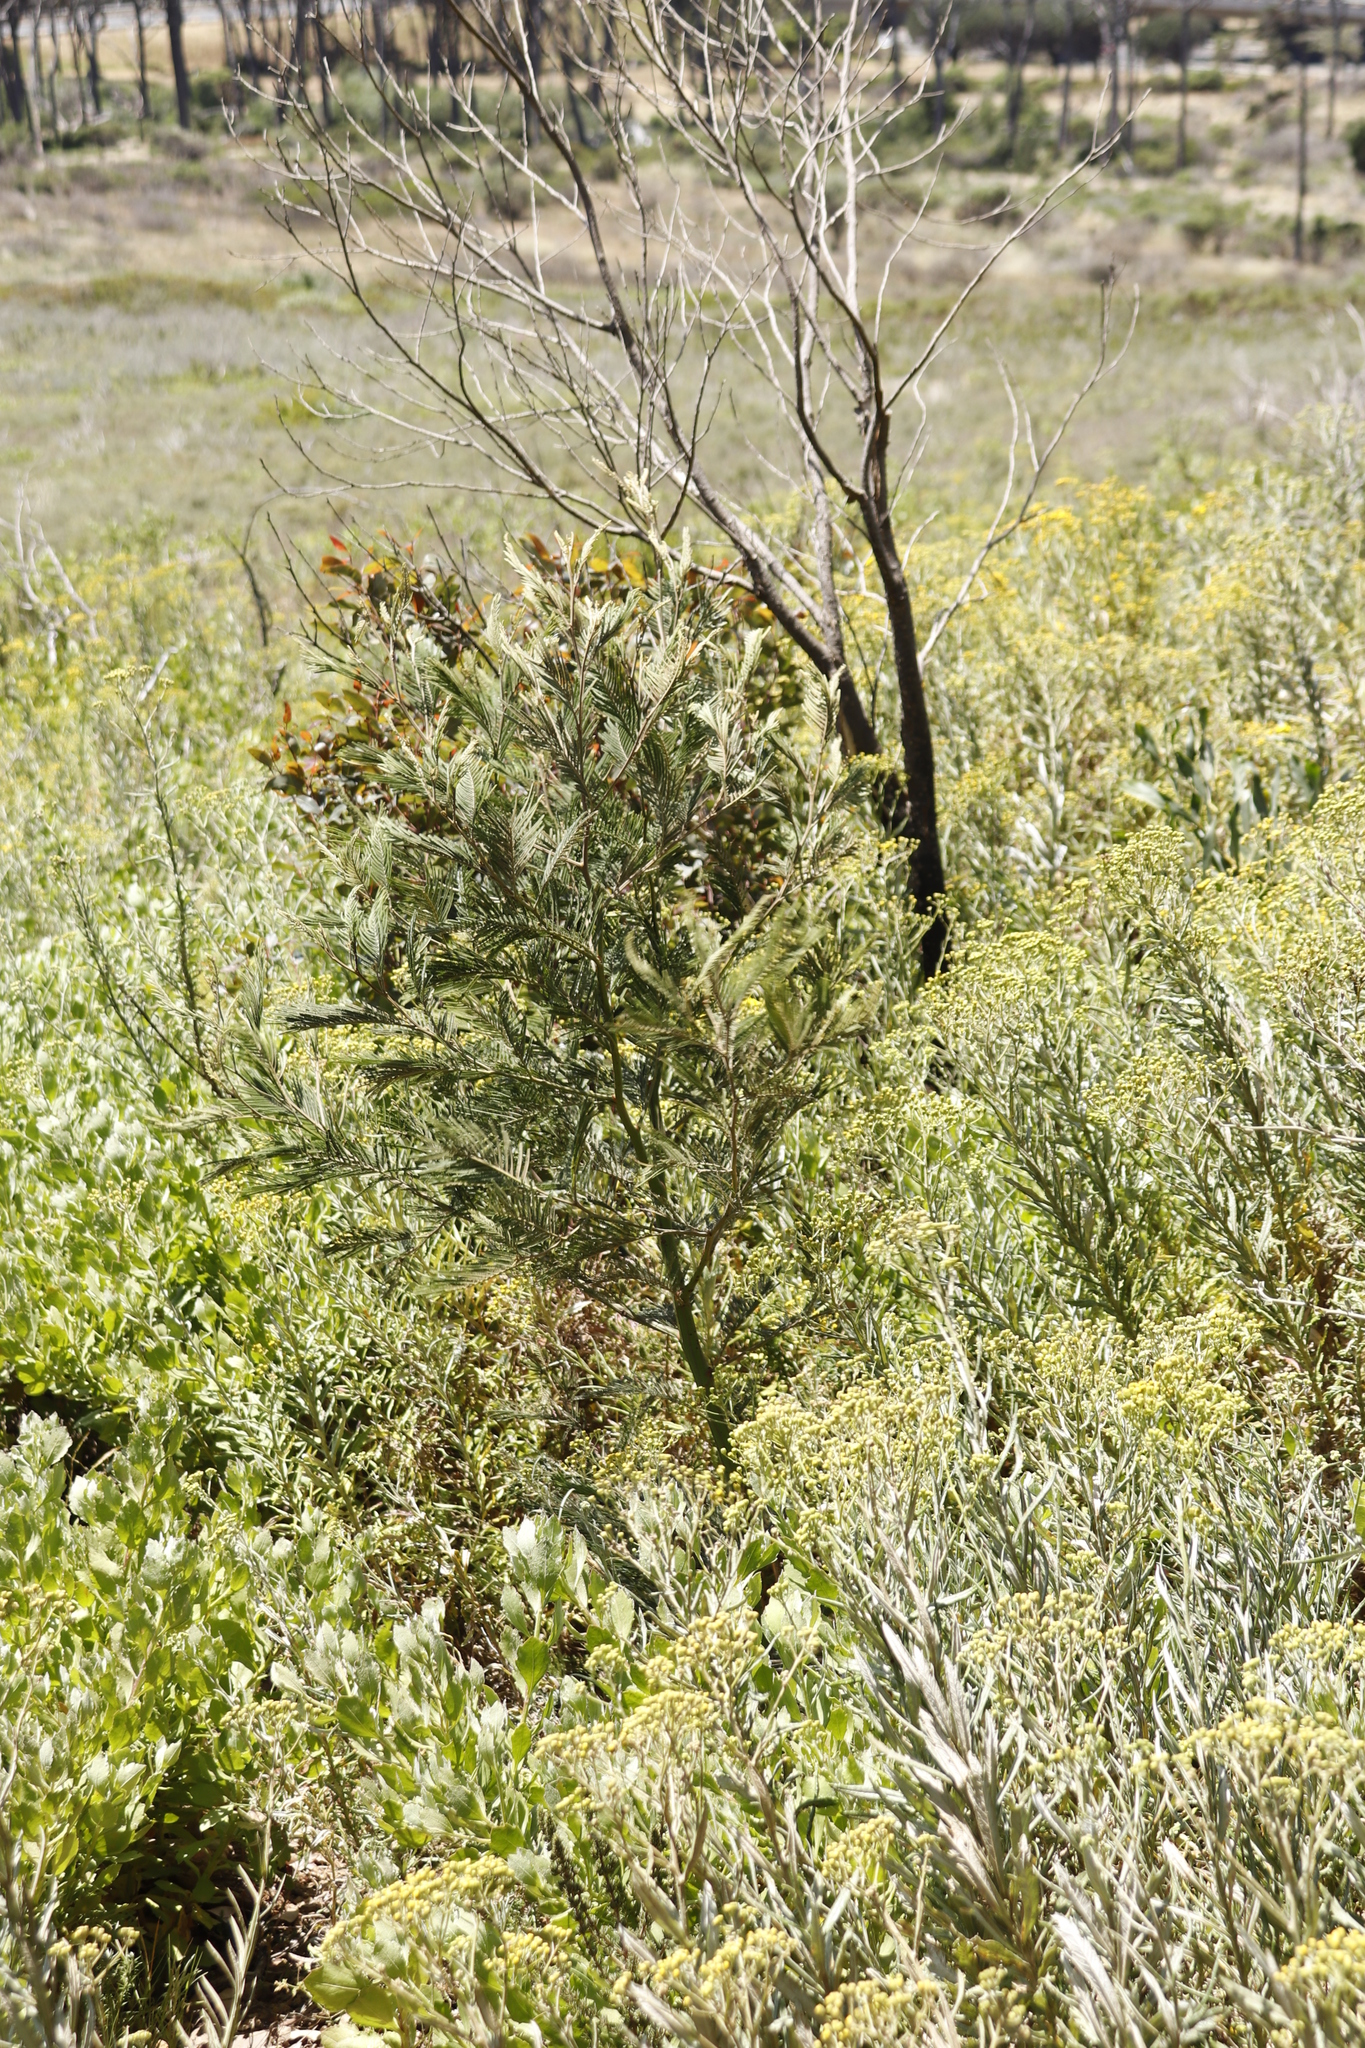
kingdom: Plantae
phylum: Tracheophyta
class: Magnoliopsida
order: Fabales
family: Fabaceae
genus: Acacia
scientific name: Acacia mearnsii
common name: Black wattle
